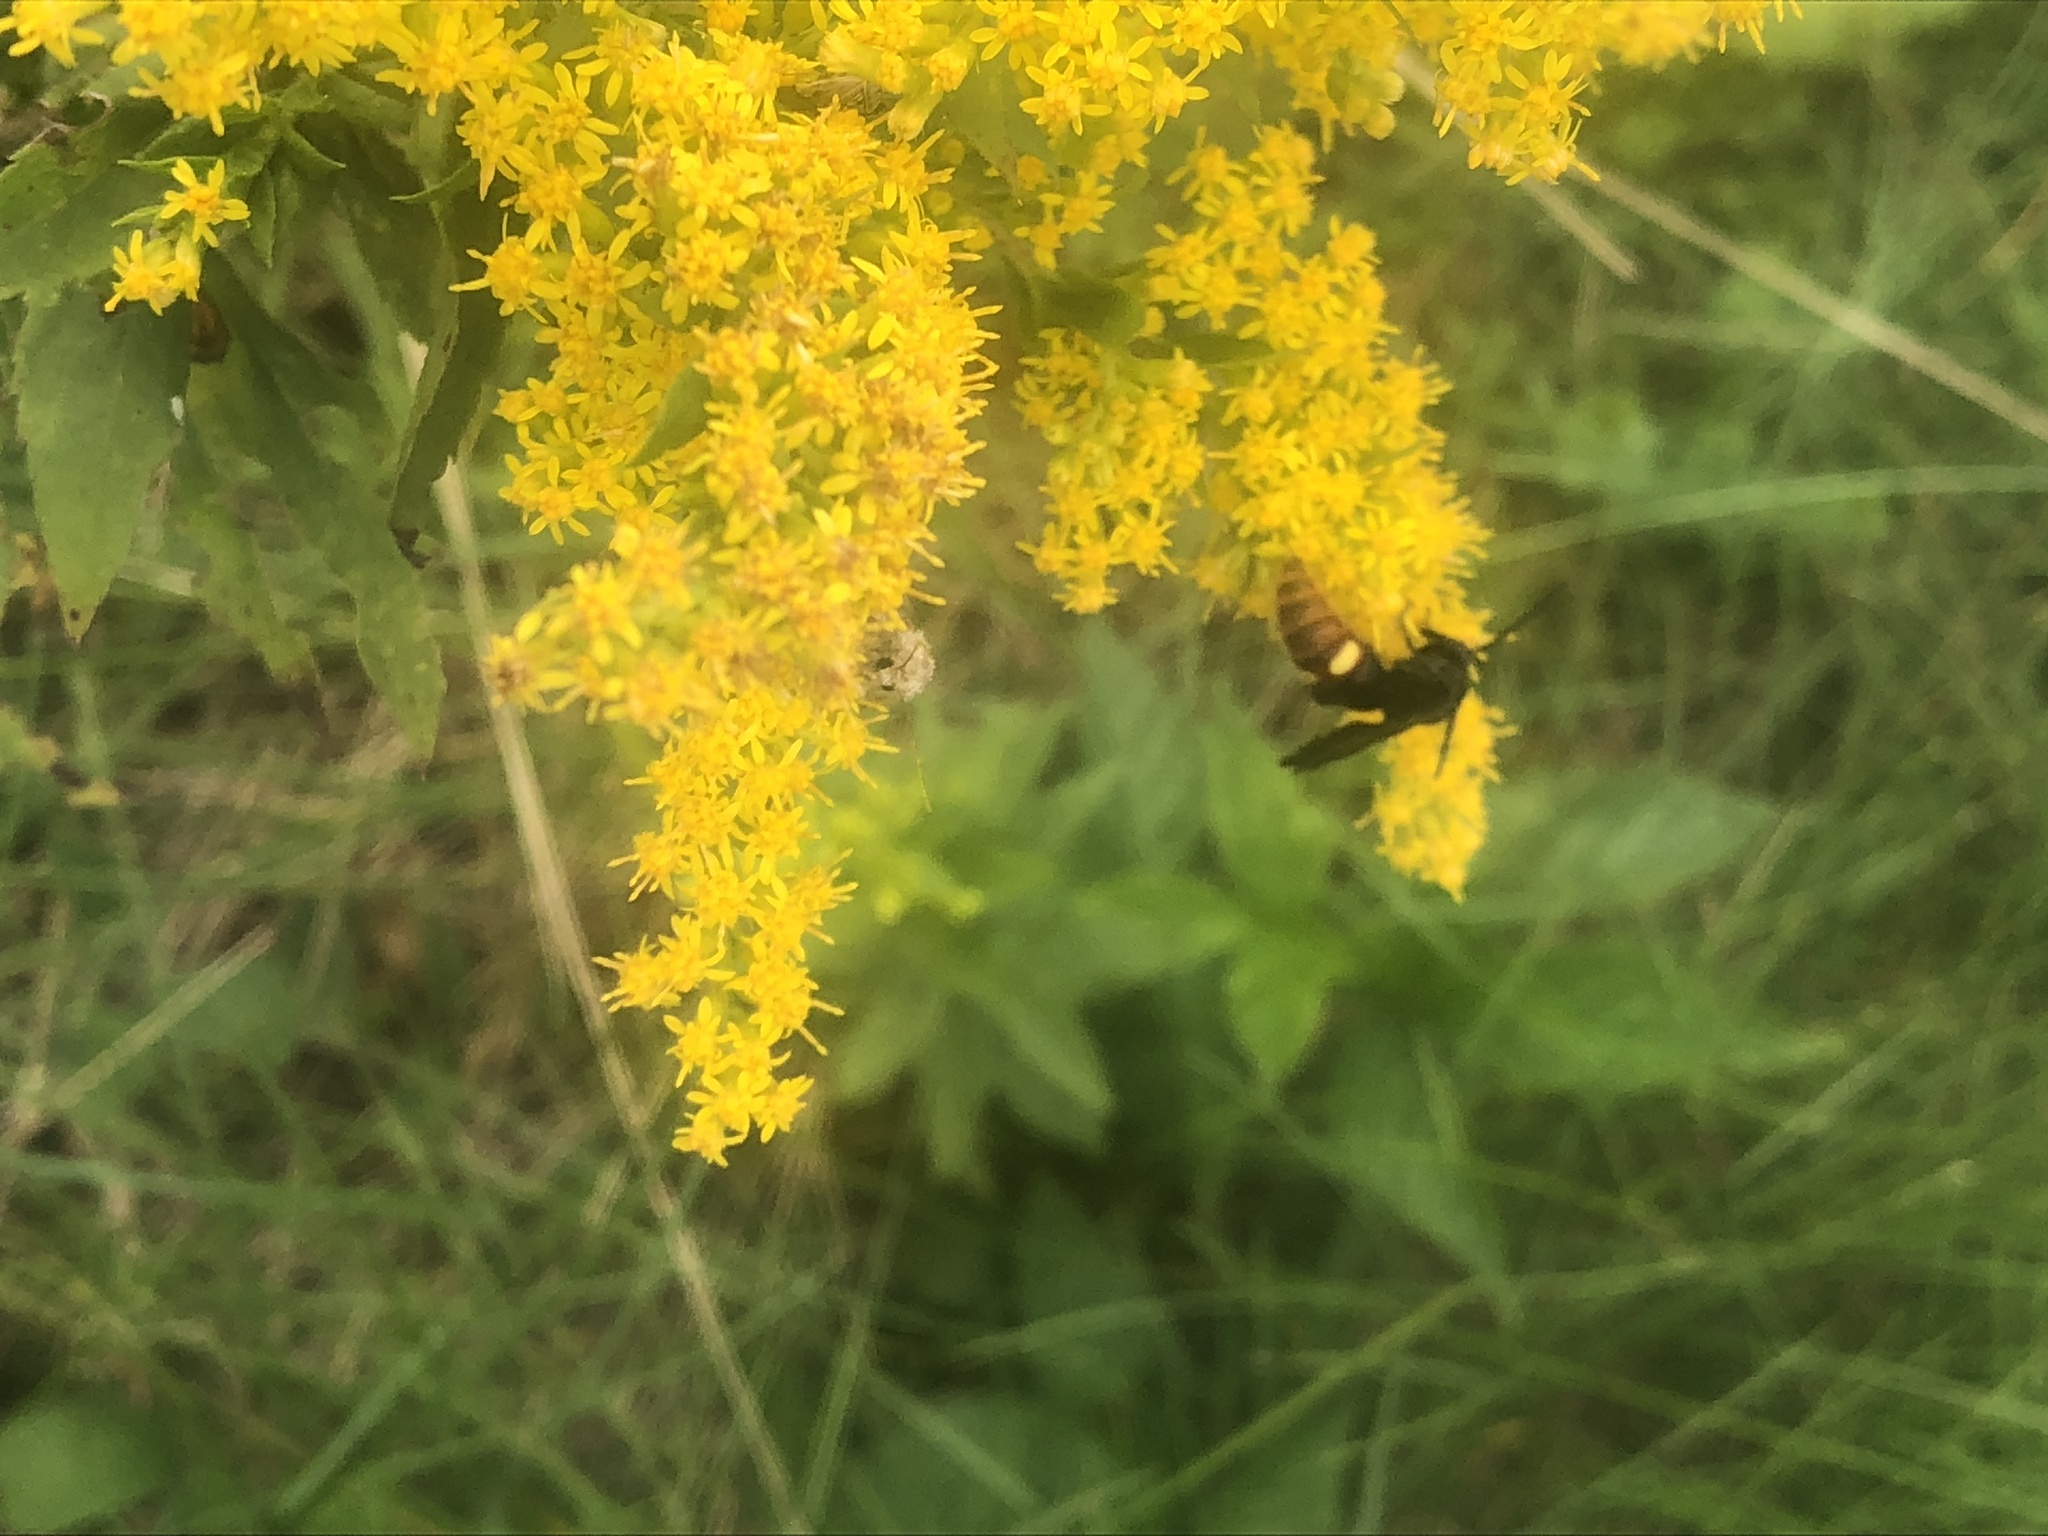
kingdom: Animalia
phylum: Arthropoda
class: Insecta
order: Hymenoptera
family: Scoliidae
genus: Scolia
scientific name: Scolia dubia
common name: Blue-winged scoliid wasp
